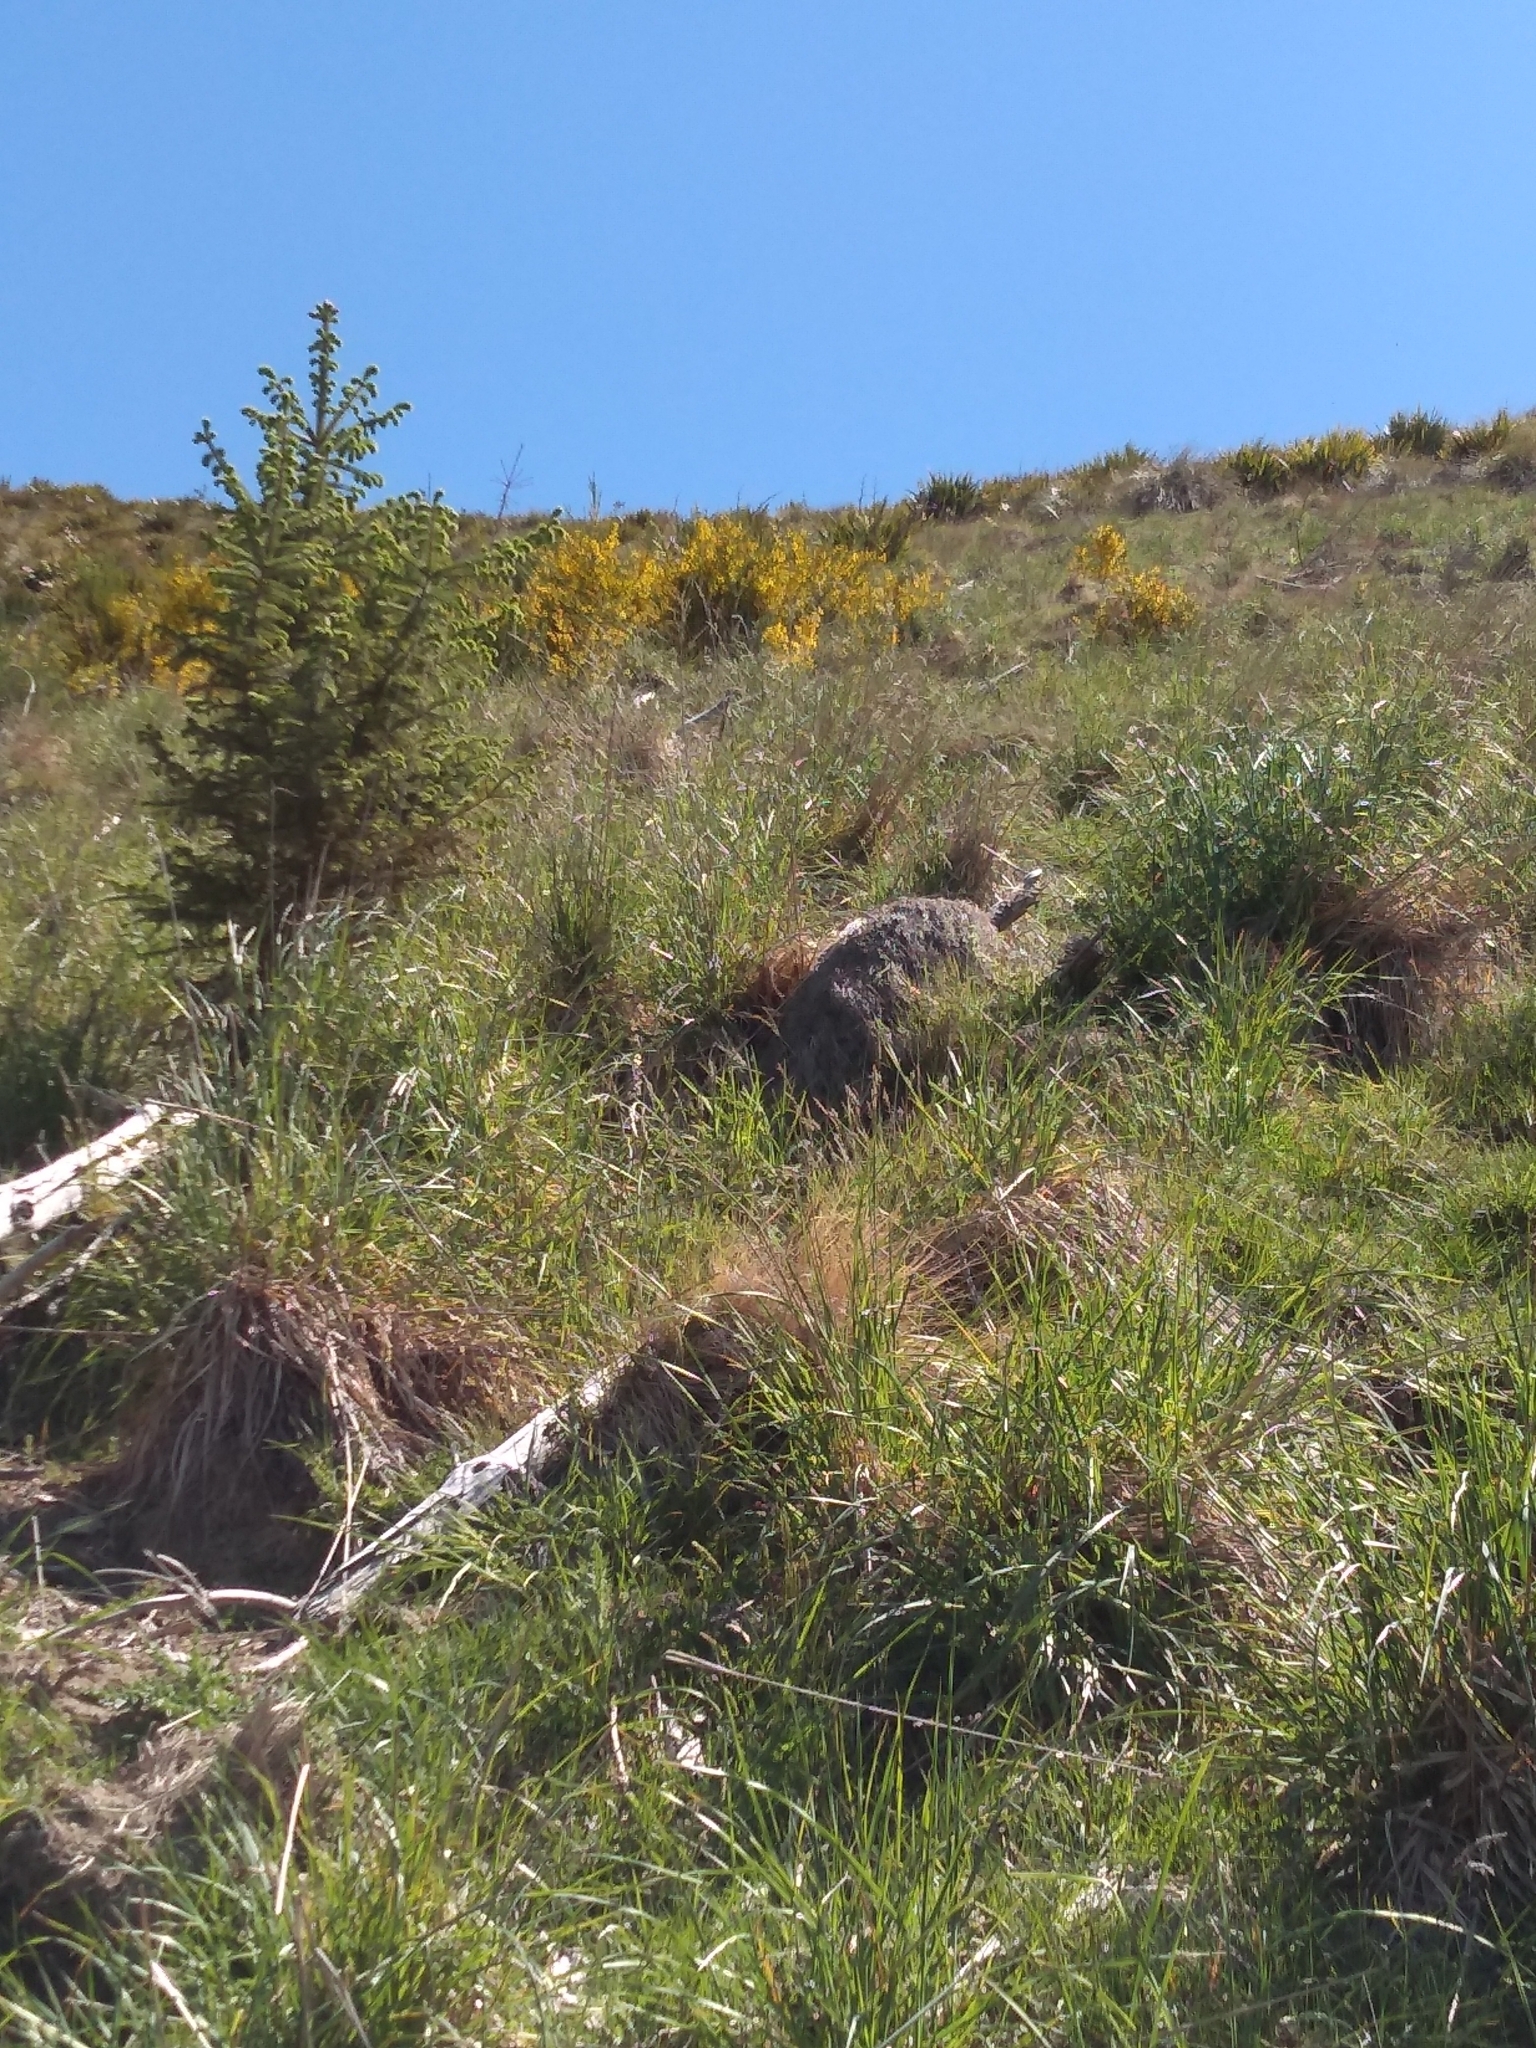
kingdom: Plantae
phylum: Tracheophyta
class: Pinopsida
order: Pinales
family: Pinaceae
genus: Pseudotsuga
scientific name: Pseudotsuga menziesii
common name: Douglas fir
